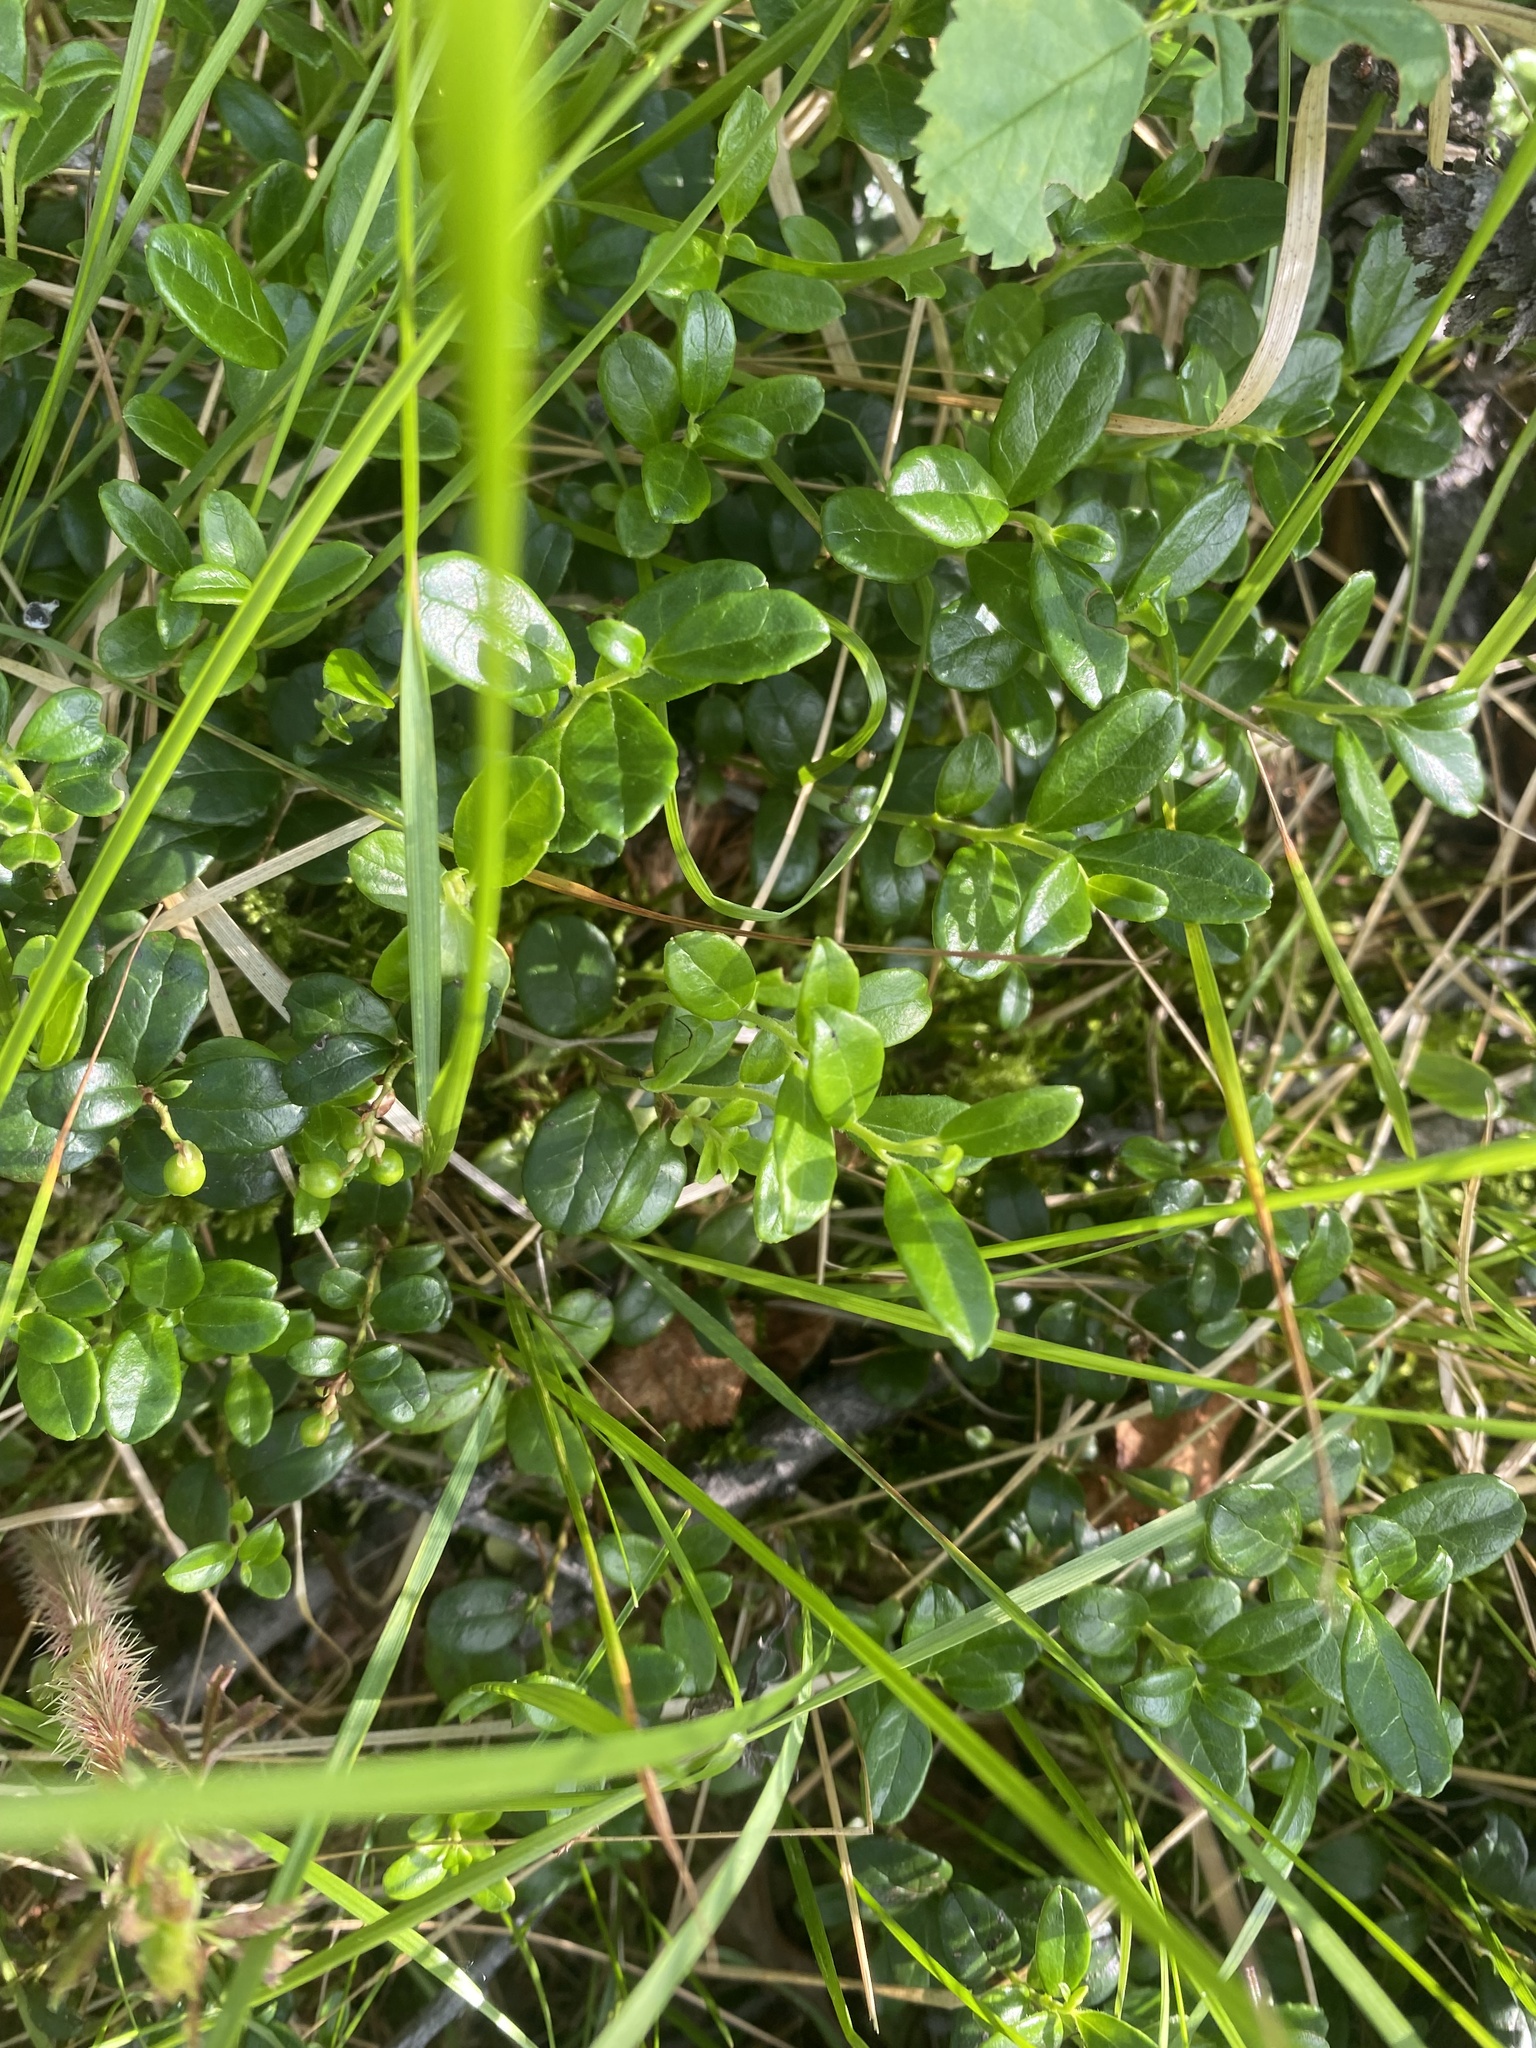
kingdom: Plantae
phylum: Tracheophyta
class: Magnoliopsida
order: Ericales
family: Ericaceae
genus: Vaccinium
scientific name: Vaccinium vitis-idaea
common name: Cowberry
